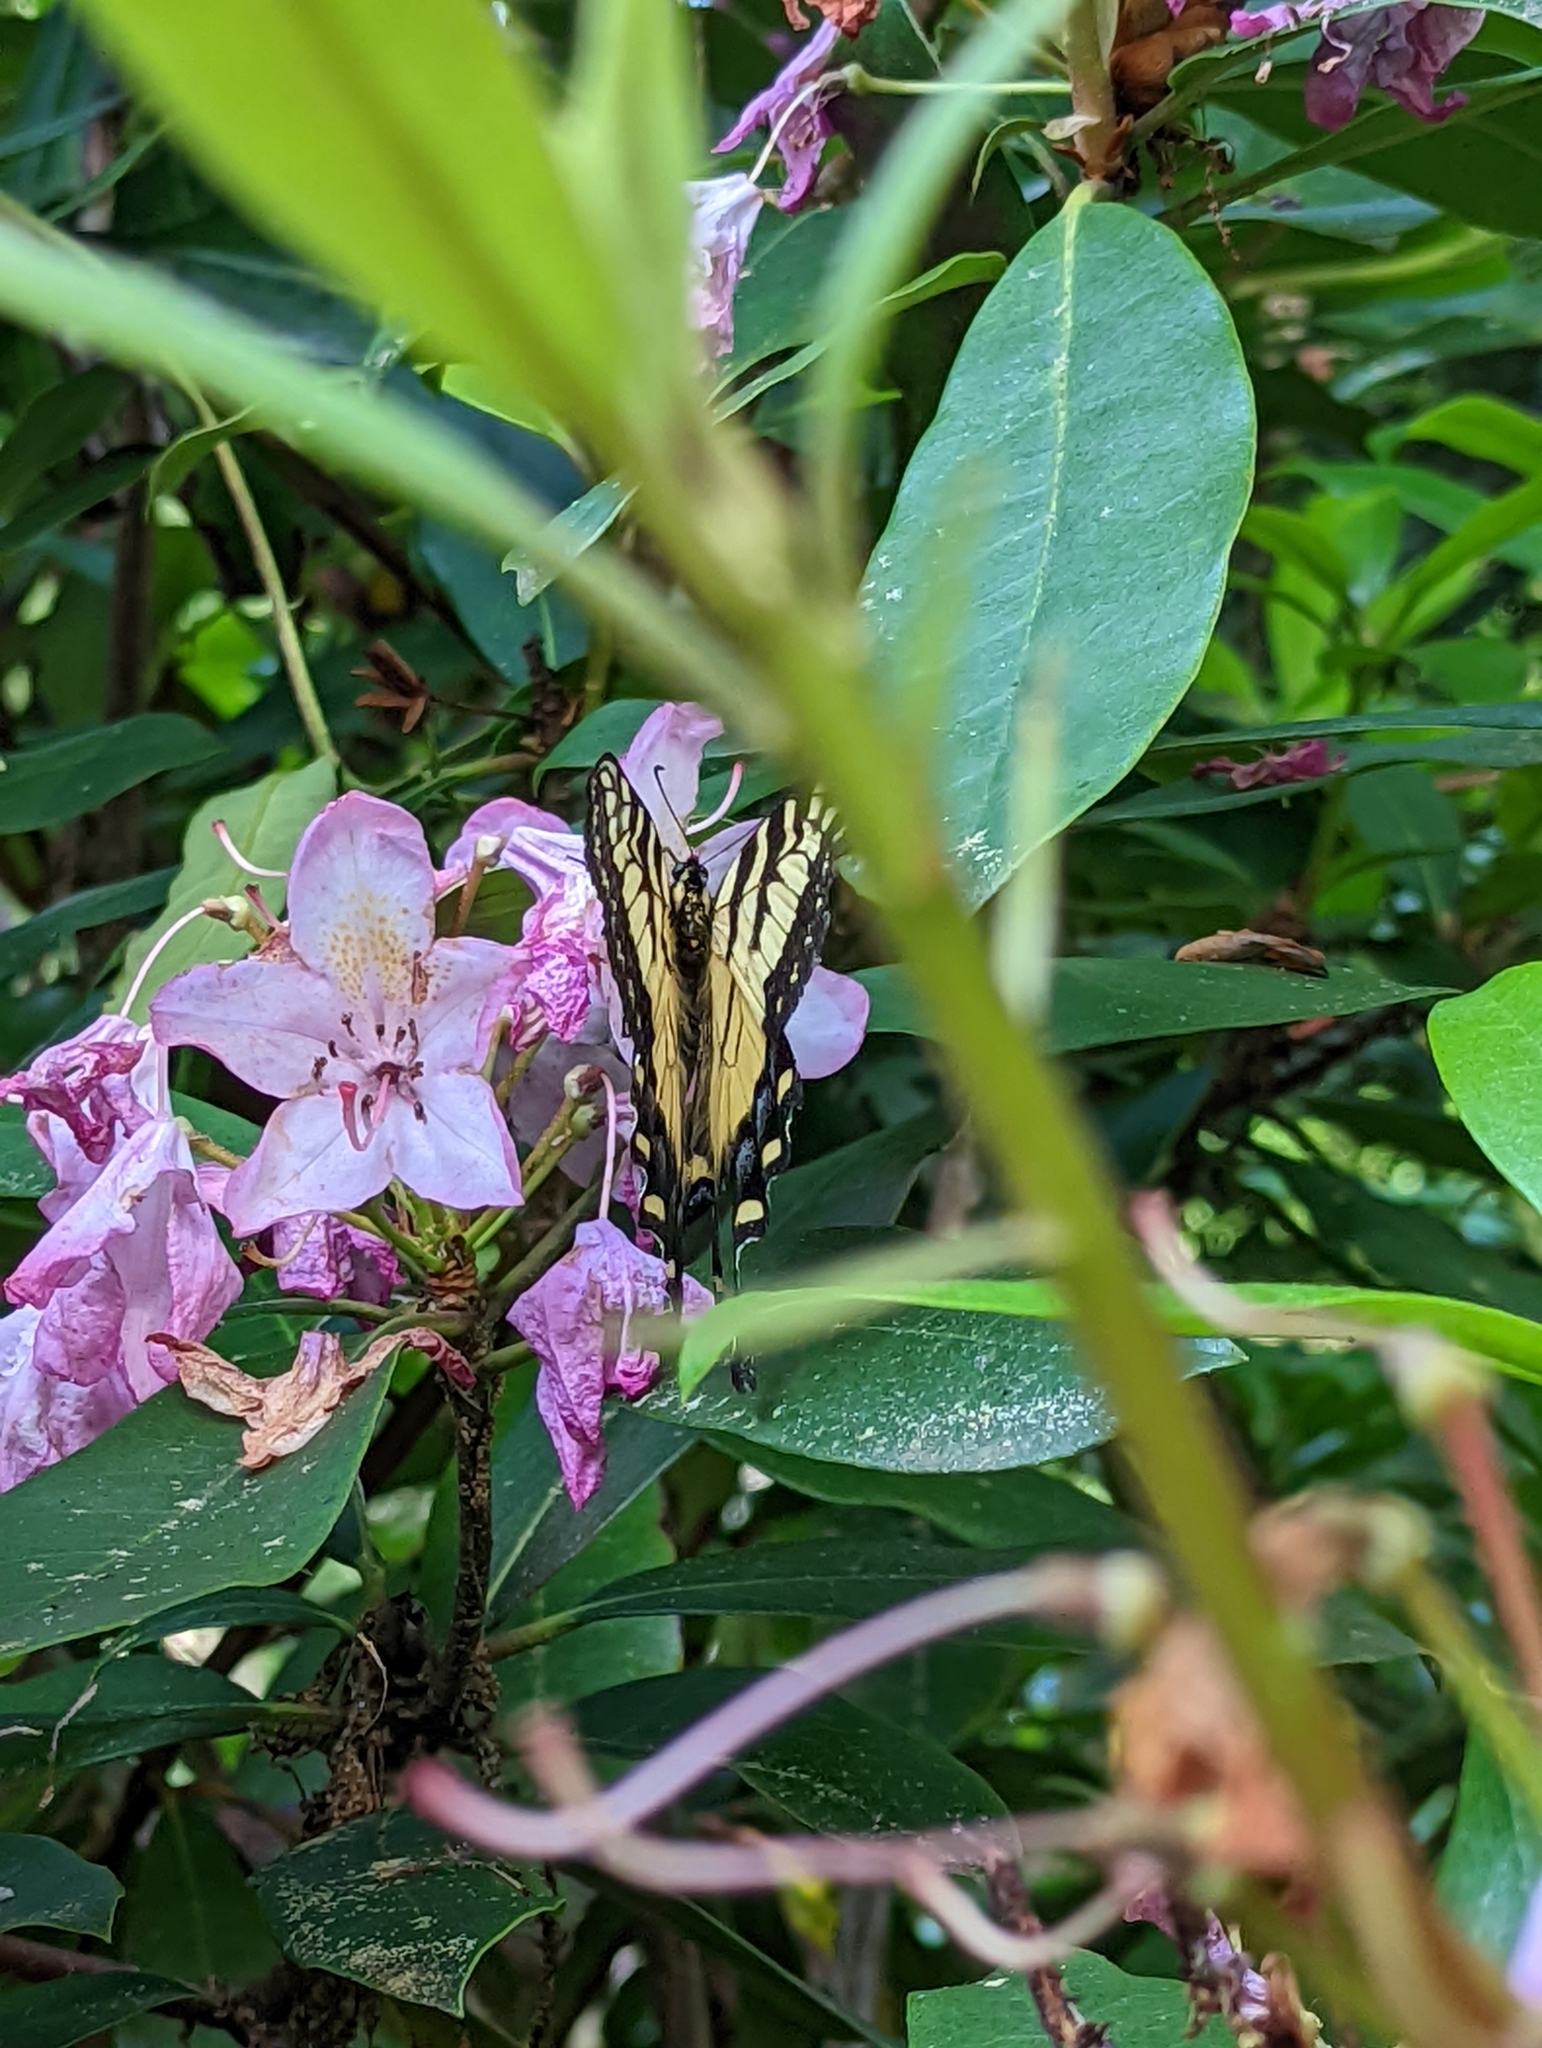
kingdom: Animalia
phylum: Arthropoda
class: Insecta
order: Lepidoptera
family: Papilionidae
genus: Papilio
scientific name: Papilio
